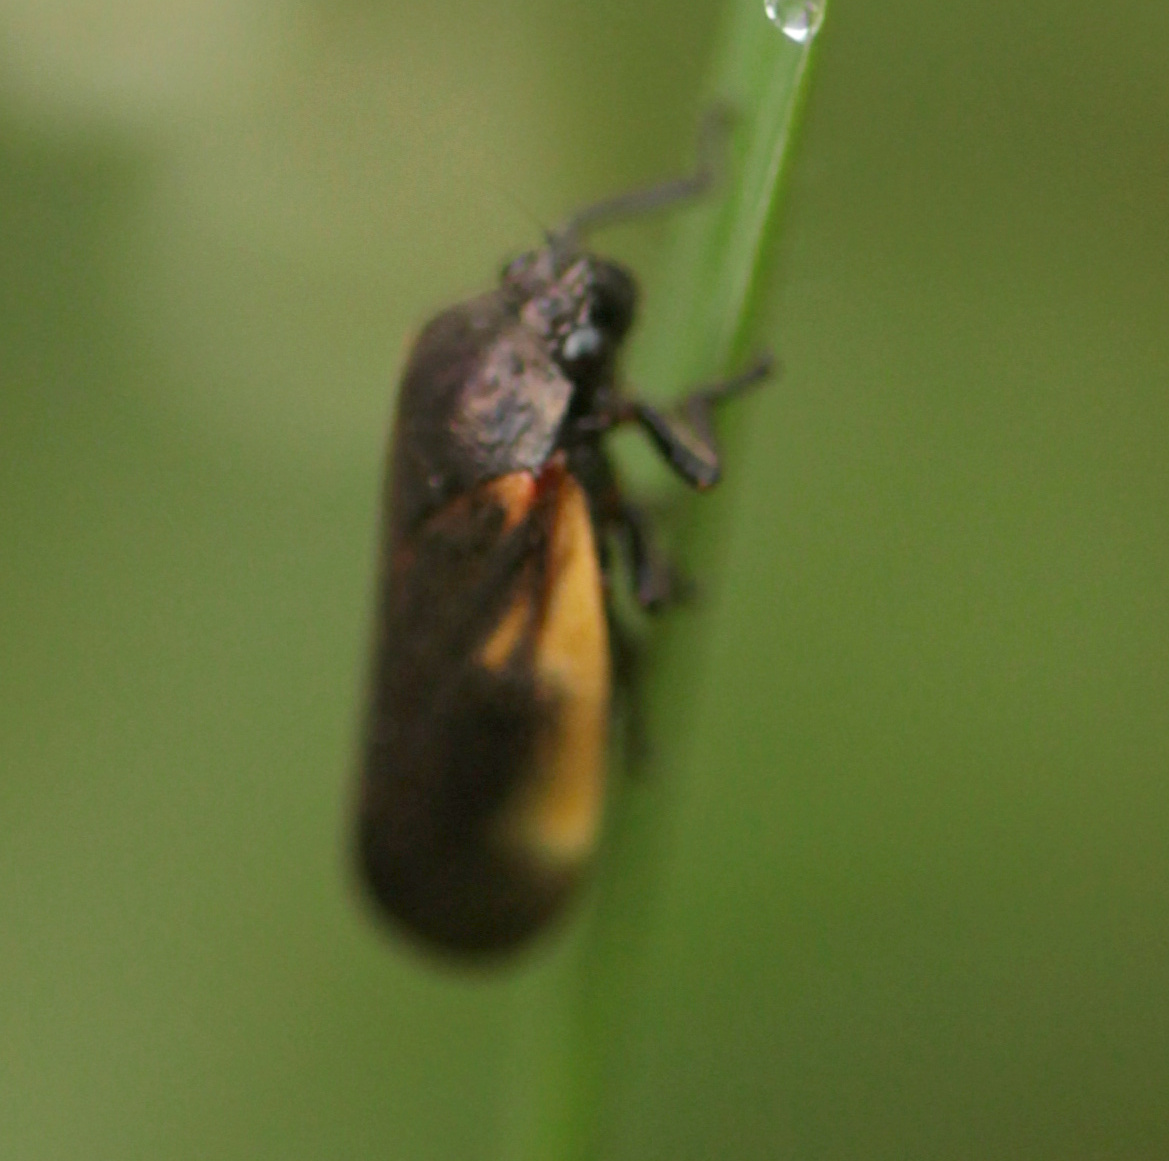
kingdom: Animalia
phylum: Arthropoda
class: Insecta
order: Hemiptera
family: Cercopidae
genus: Aeneolamia
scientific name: Aeneolamia flavilatera
